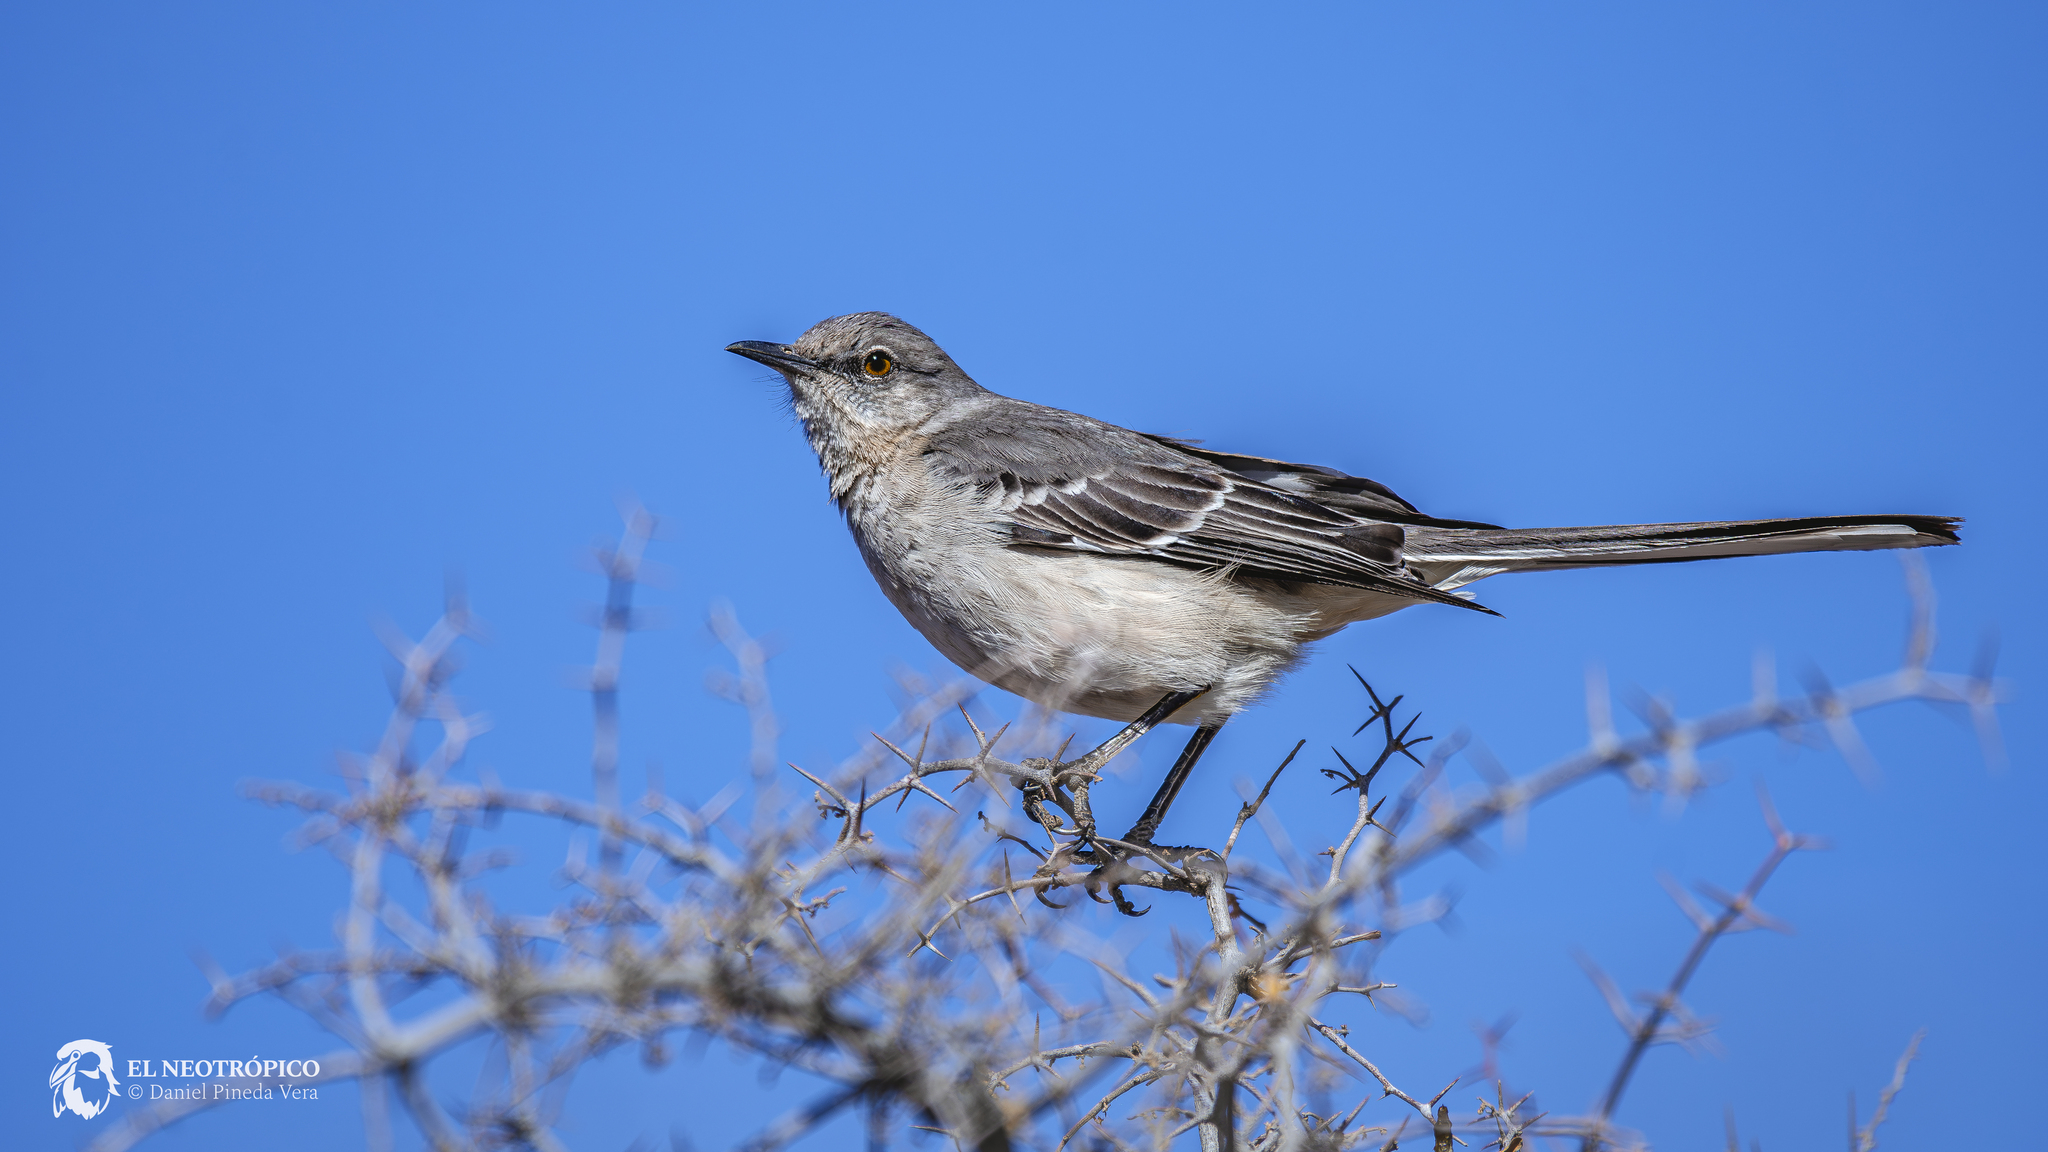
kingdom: Animalia
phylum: Chordata
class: Aves
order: Passeriformes
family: Mimidae
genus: Mimus
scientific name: Mimus polyglottos
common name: Northern mockingbird
